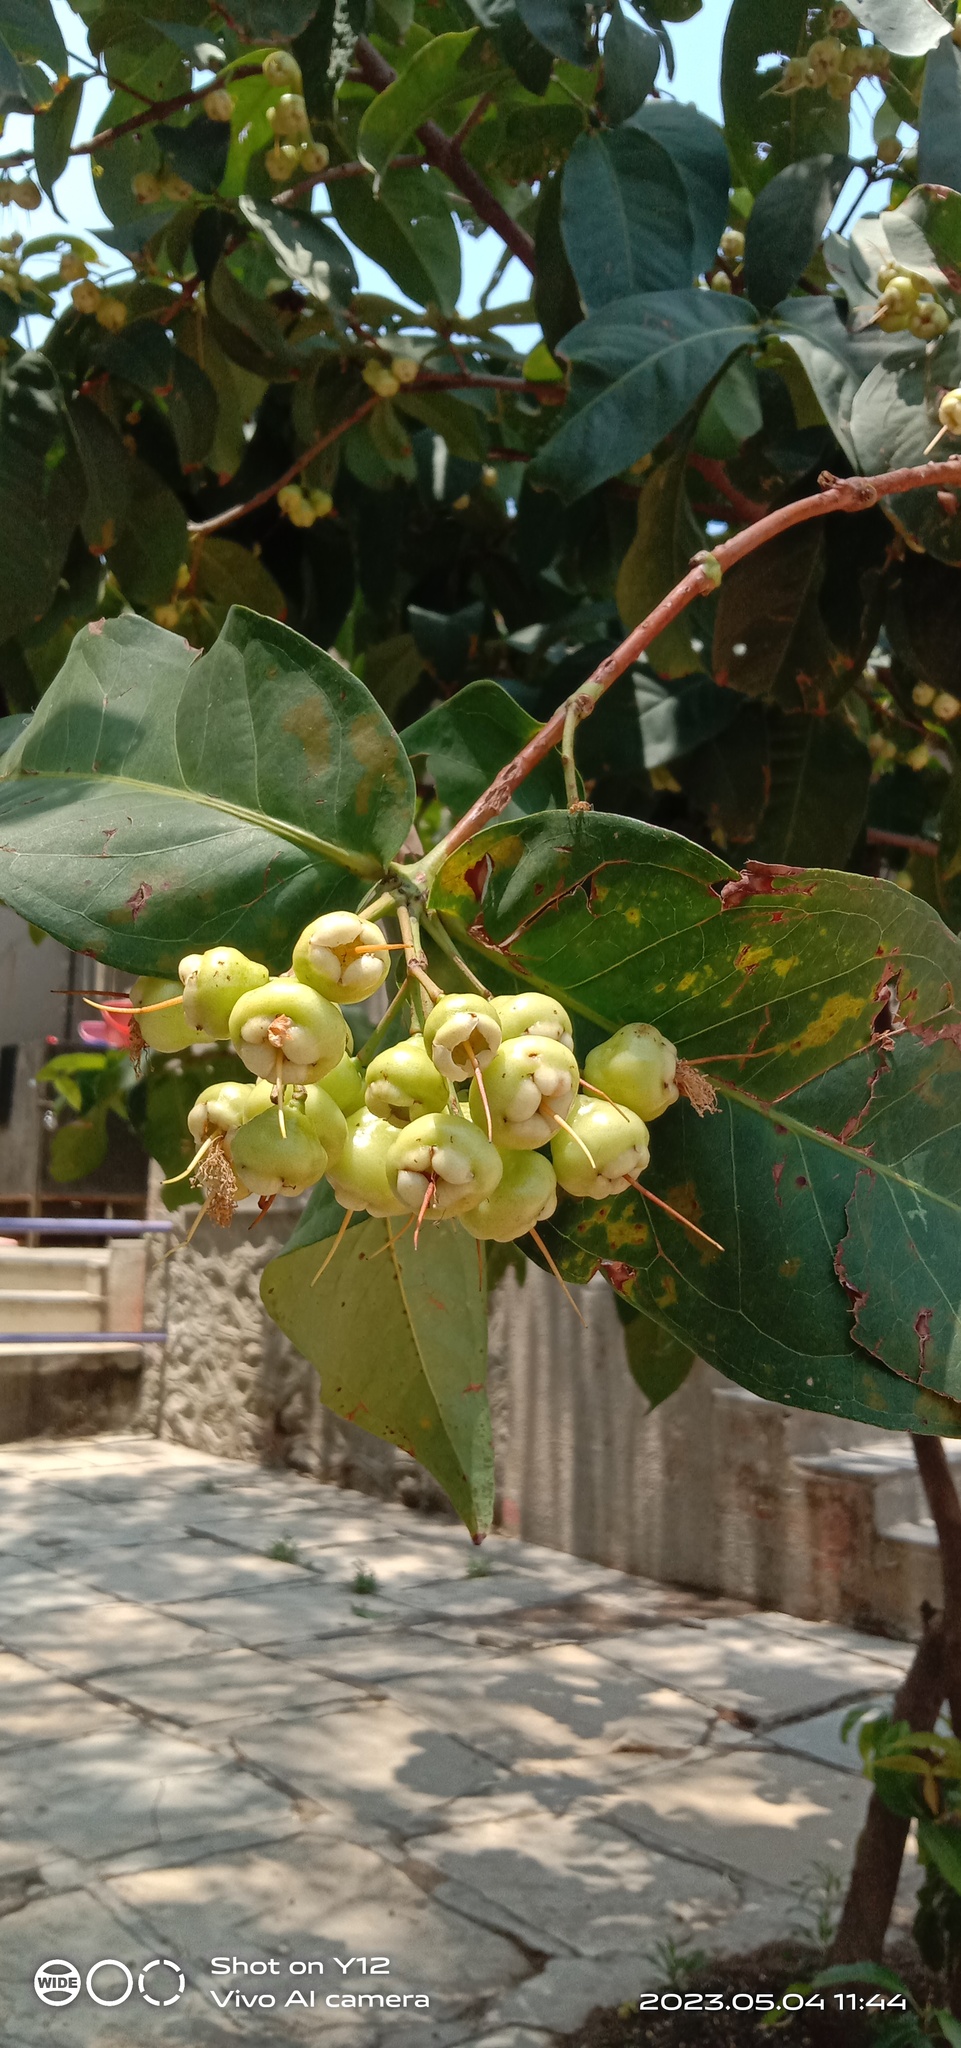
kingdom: Plantae
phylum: Tracheophyta
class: Magnoliopsida
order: Myrtales
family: Myrtaceae
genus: Syzygium
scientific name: Syzygium jambos
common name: Malabar plum
